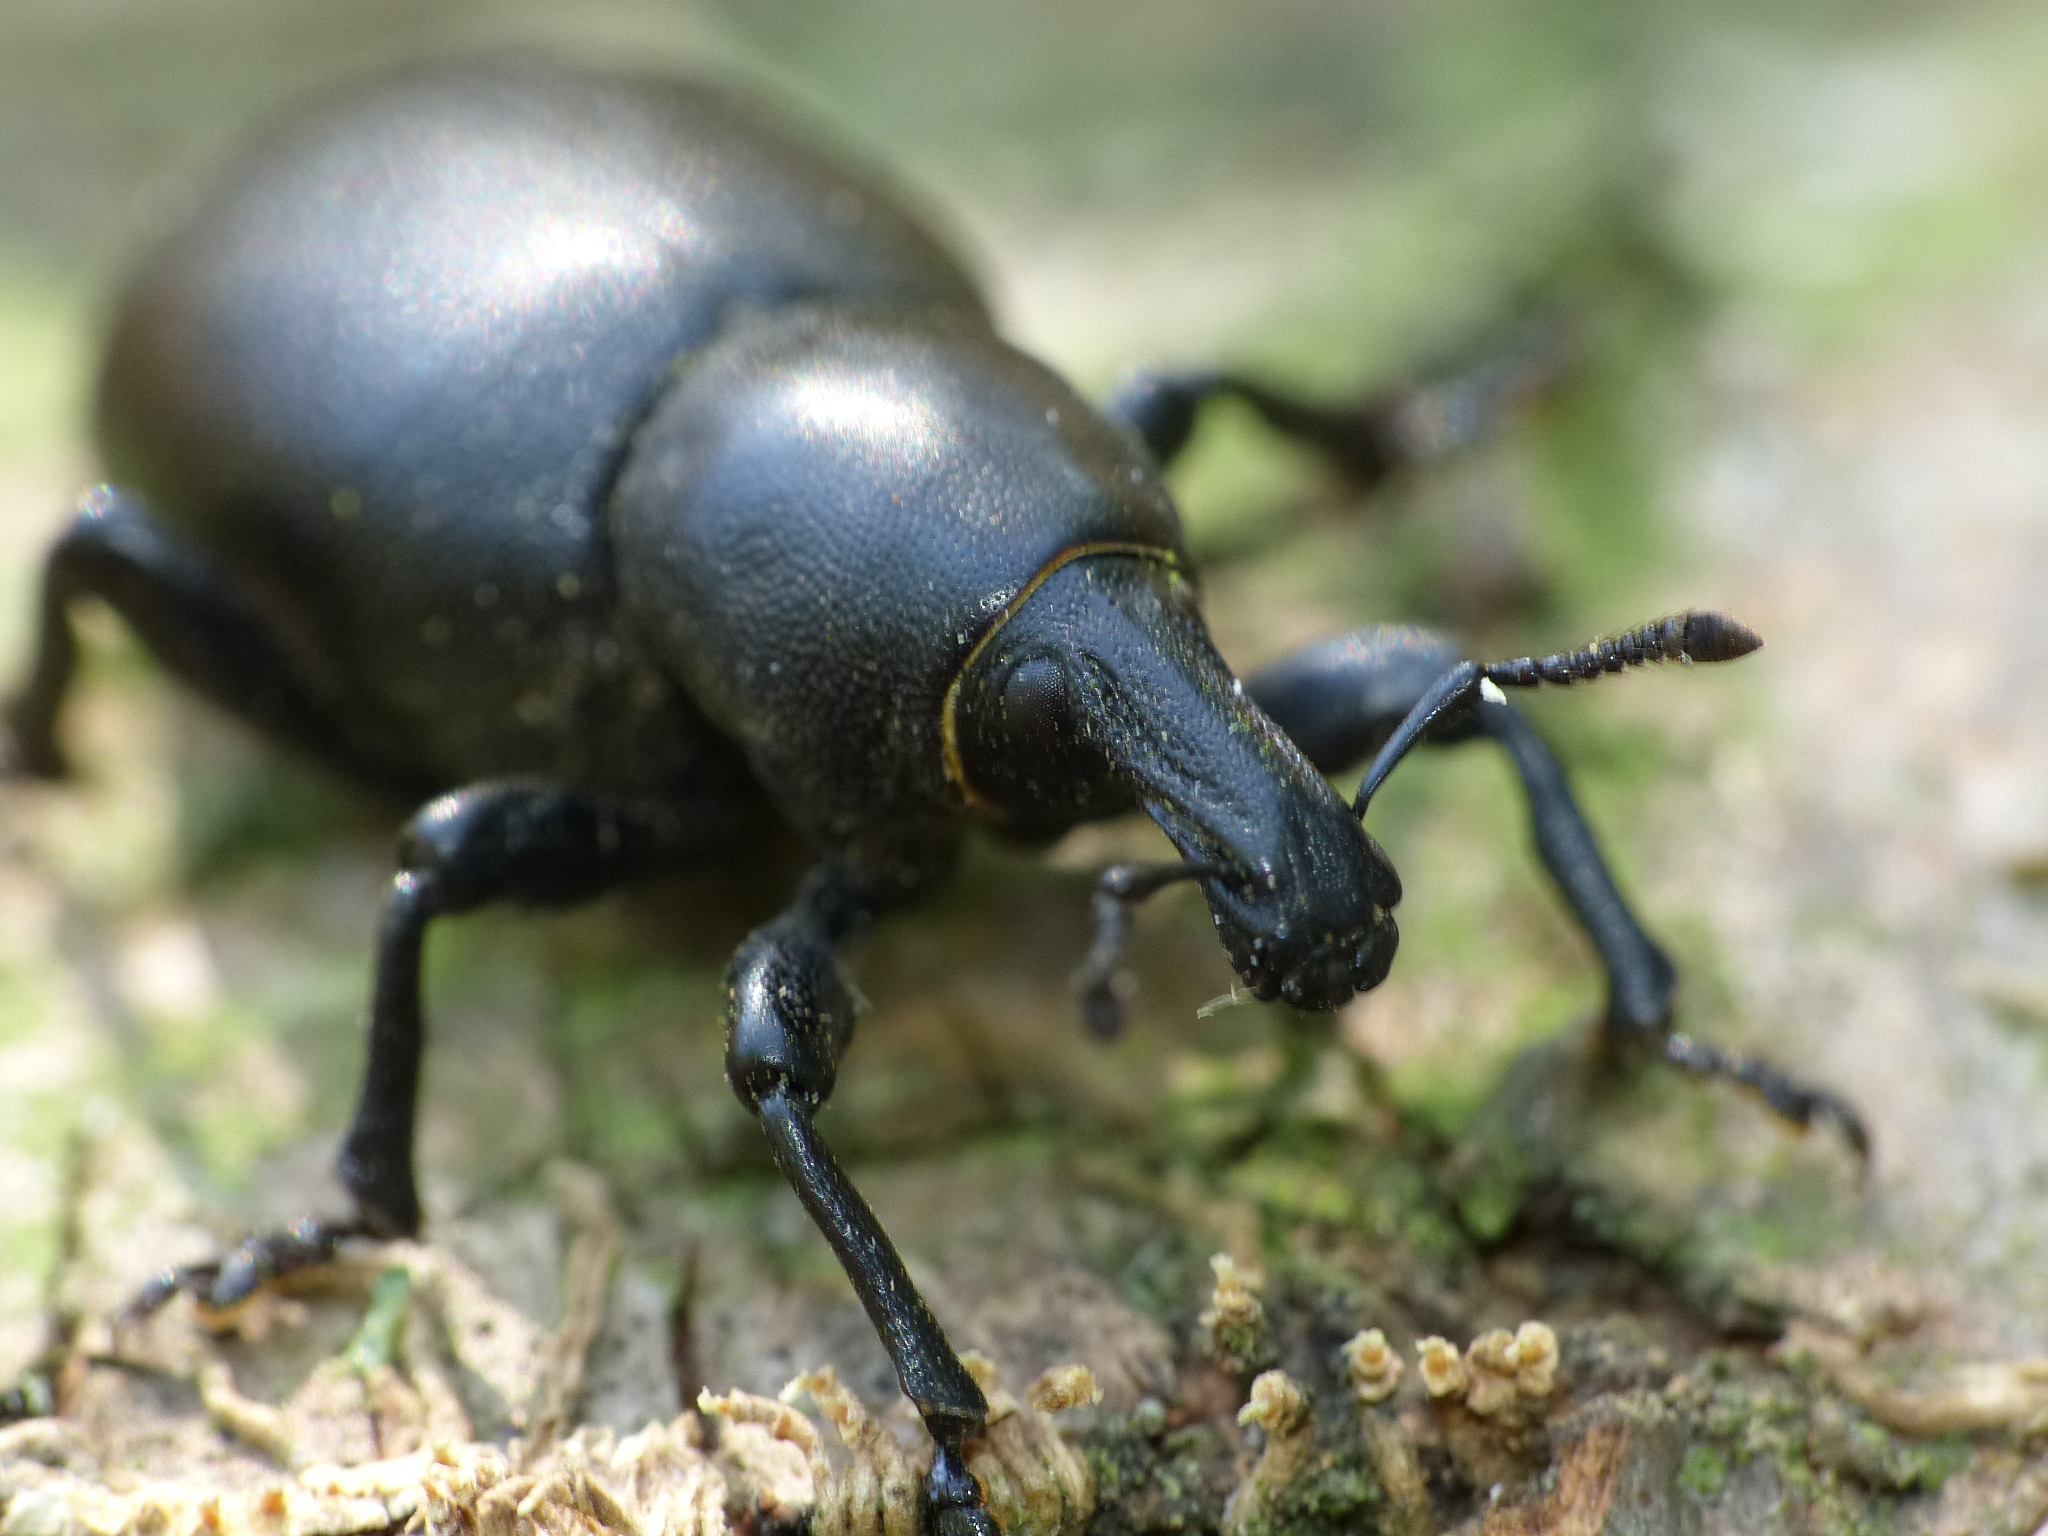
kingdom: Animalia
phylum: Arthropoda
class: Insecta
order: Coleoptera
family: Curculionidae
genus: Liparus
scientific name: Liparus dirus
